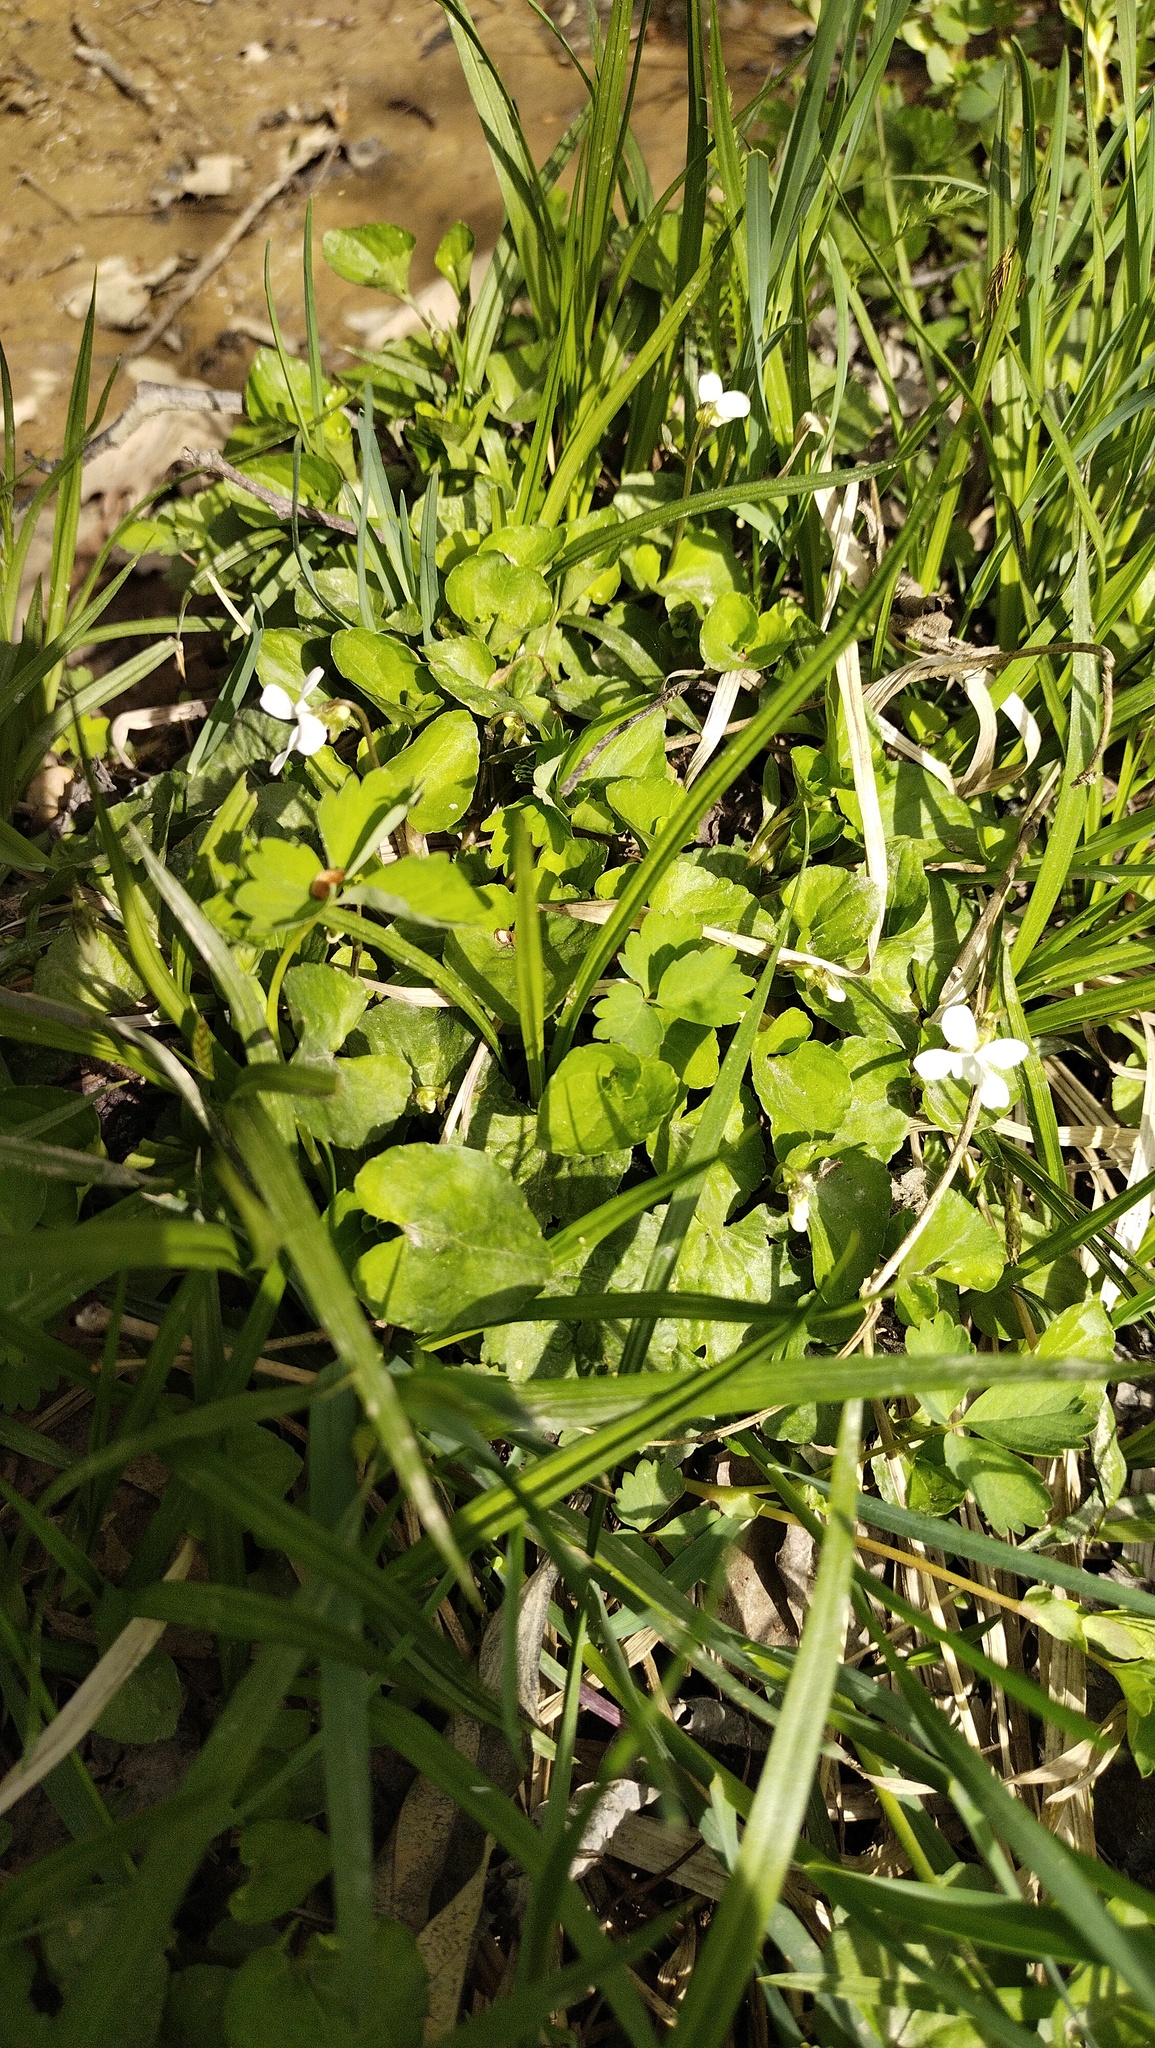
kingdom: Plantae
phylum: Tracheophyta
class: Magnoliopsida
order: Malpighiales
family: Violaceae
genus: Viola
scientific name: Viola
